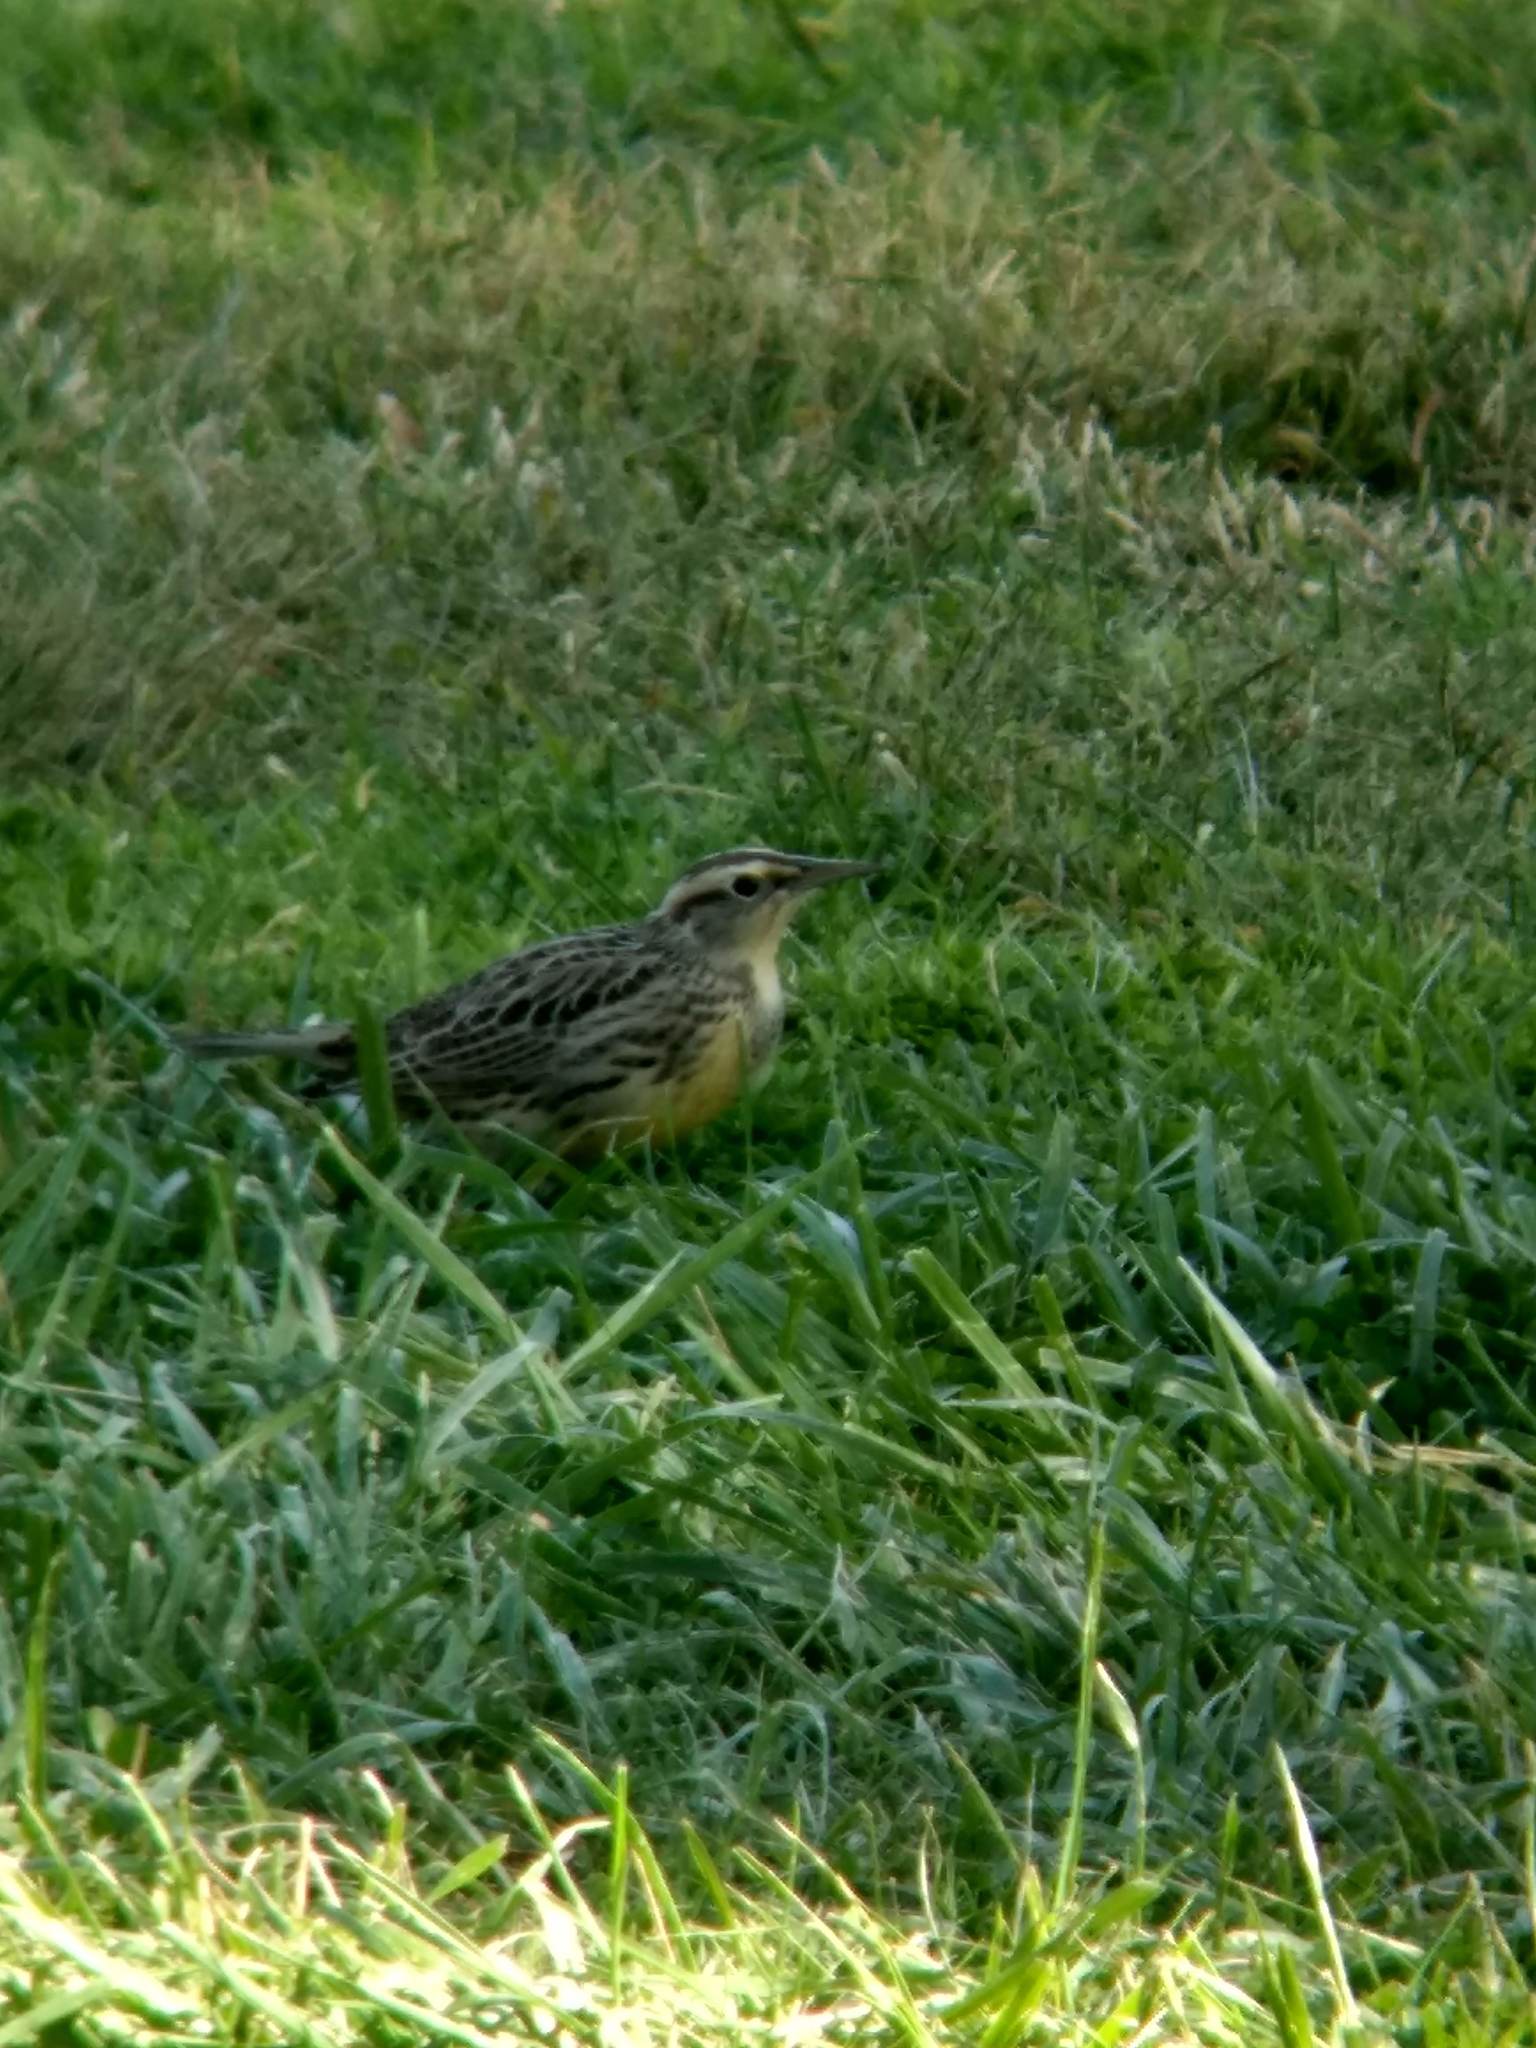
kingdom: Animalia
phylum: Chordata
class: Aves
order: Passeriformes
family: Icteridae
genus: Sturnella
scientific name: Sturnella neglecta
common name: Western meadowlark
